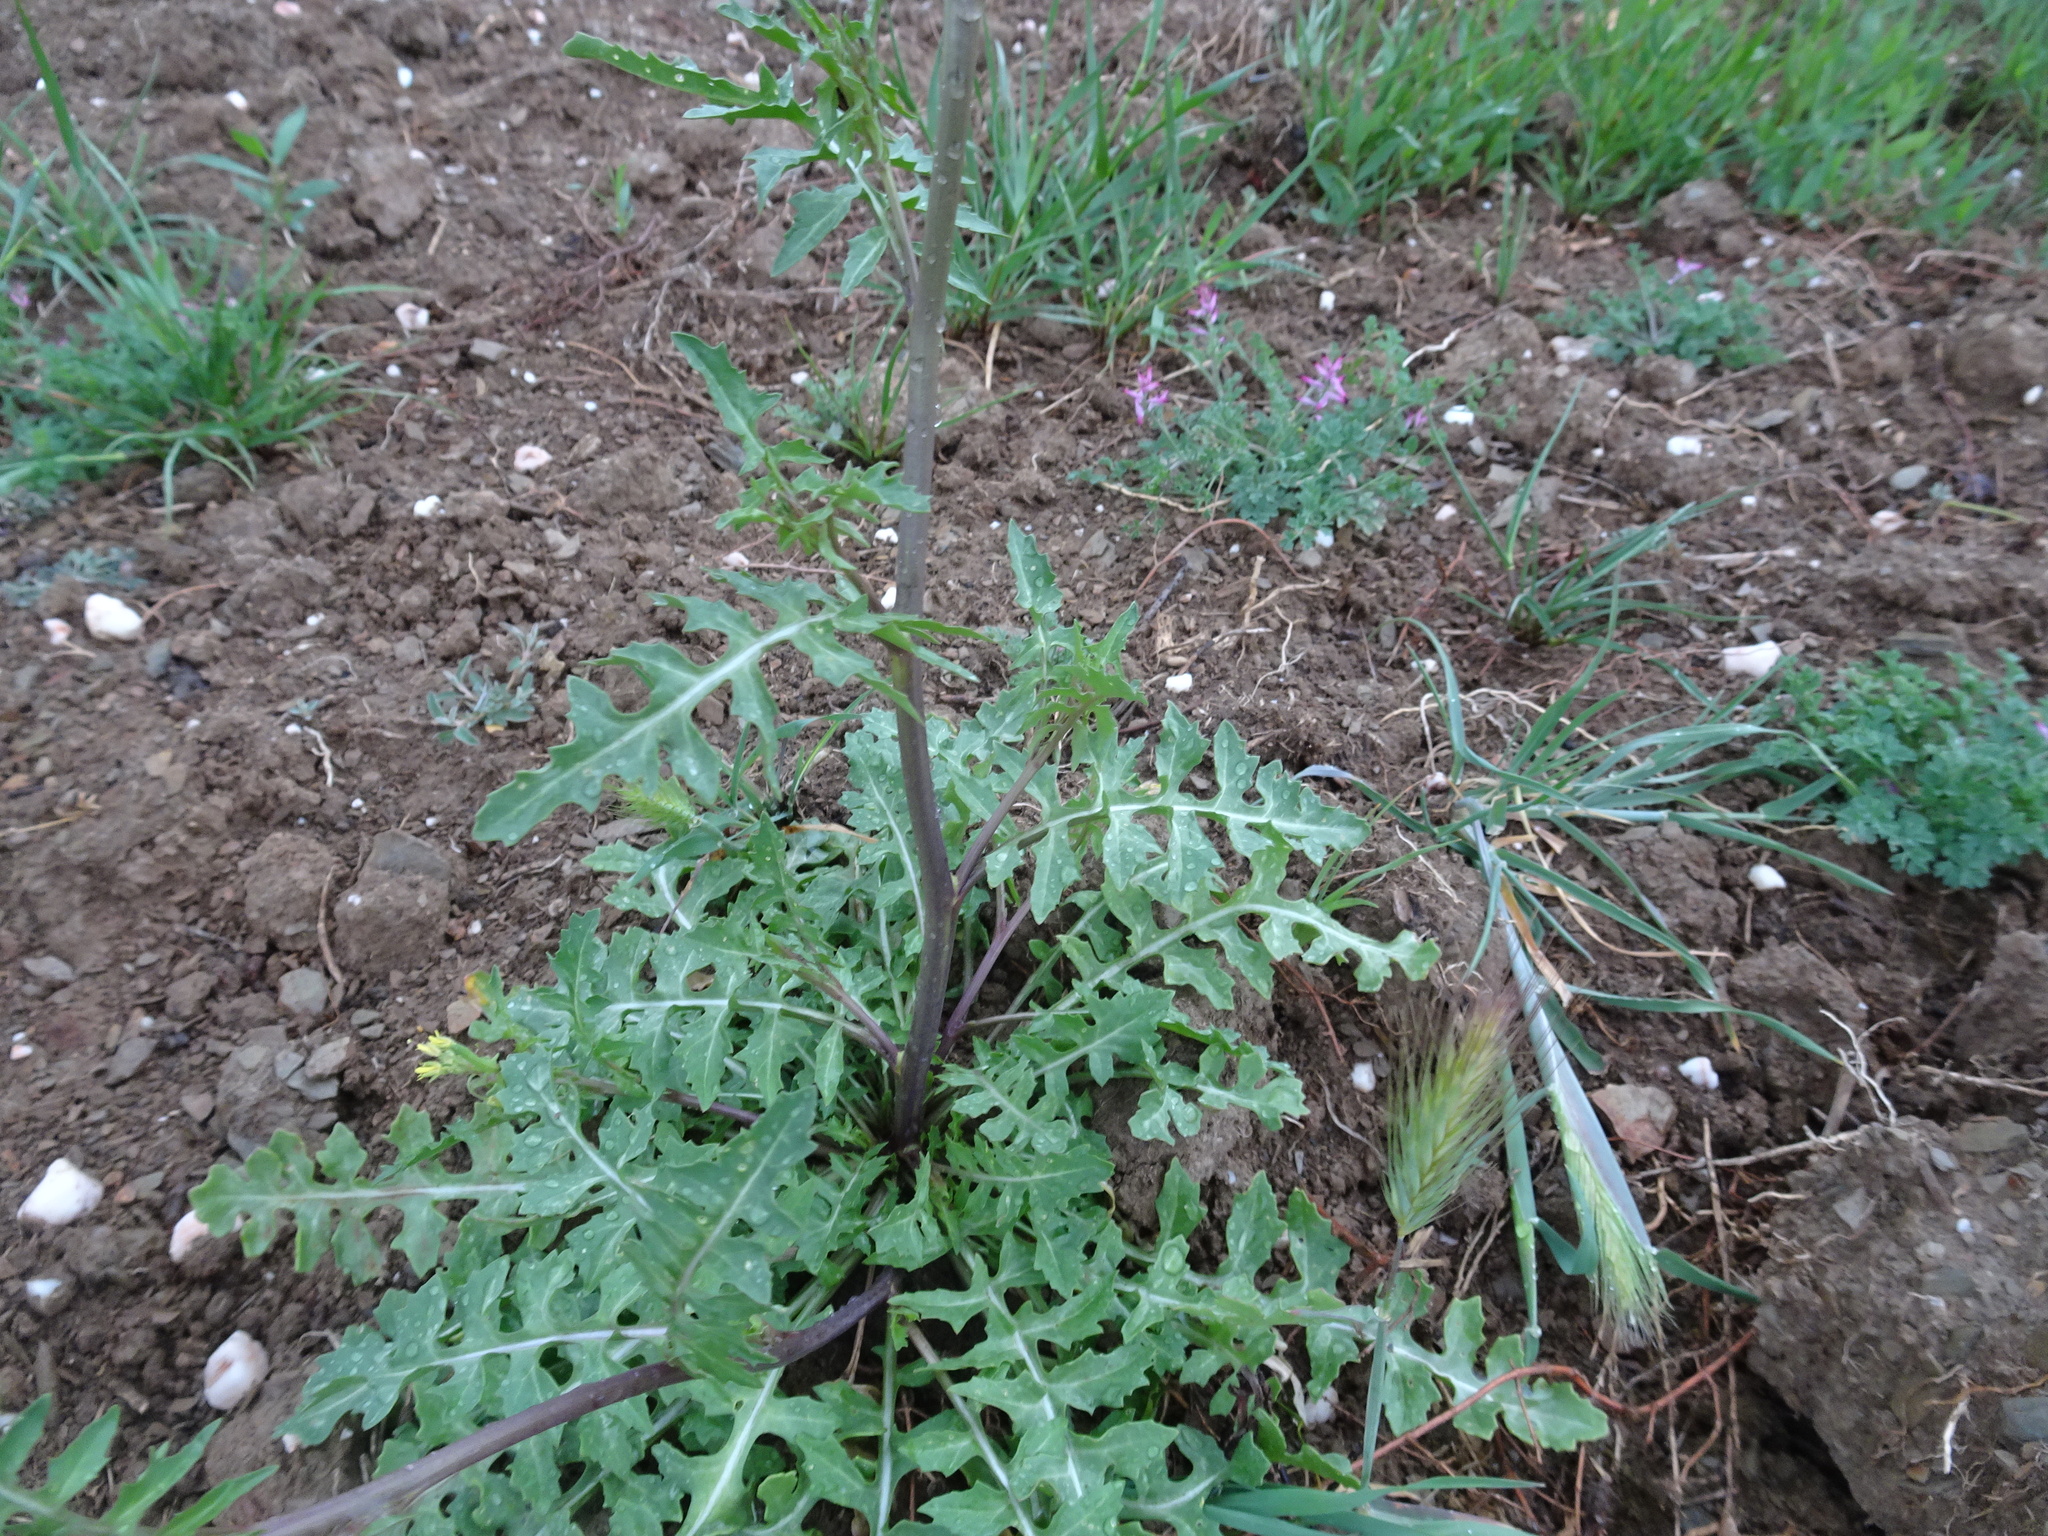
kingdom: Plantae
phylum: Tracheophyta
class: Magnoliopsida
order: Brassicales
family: Brassicaceae
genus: Sisymbrium
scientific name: Sisymbrium irio
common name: London rocket
